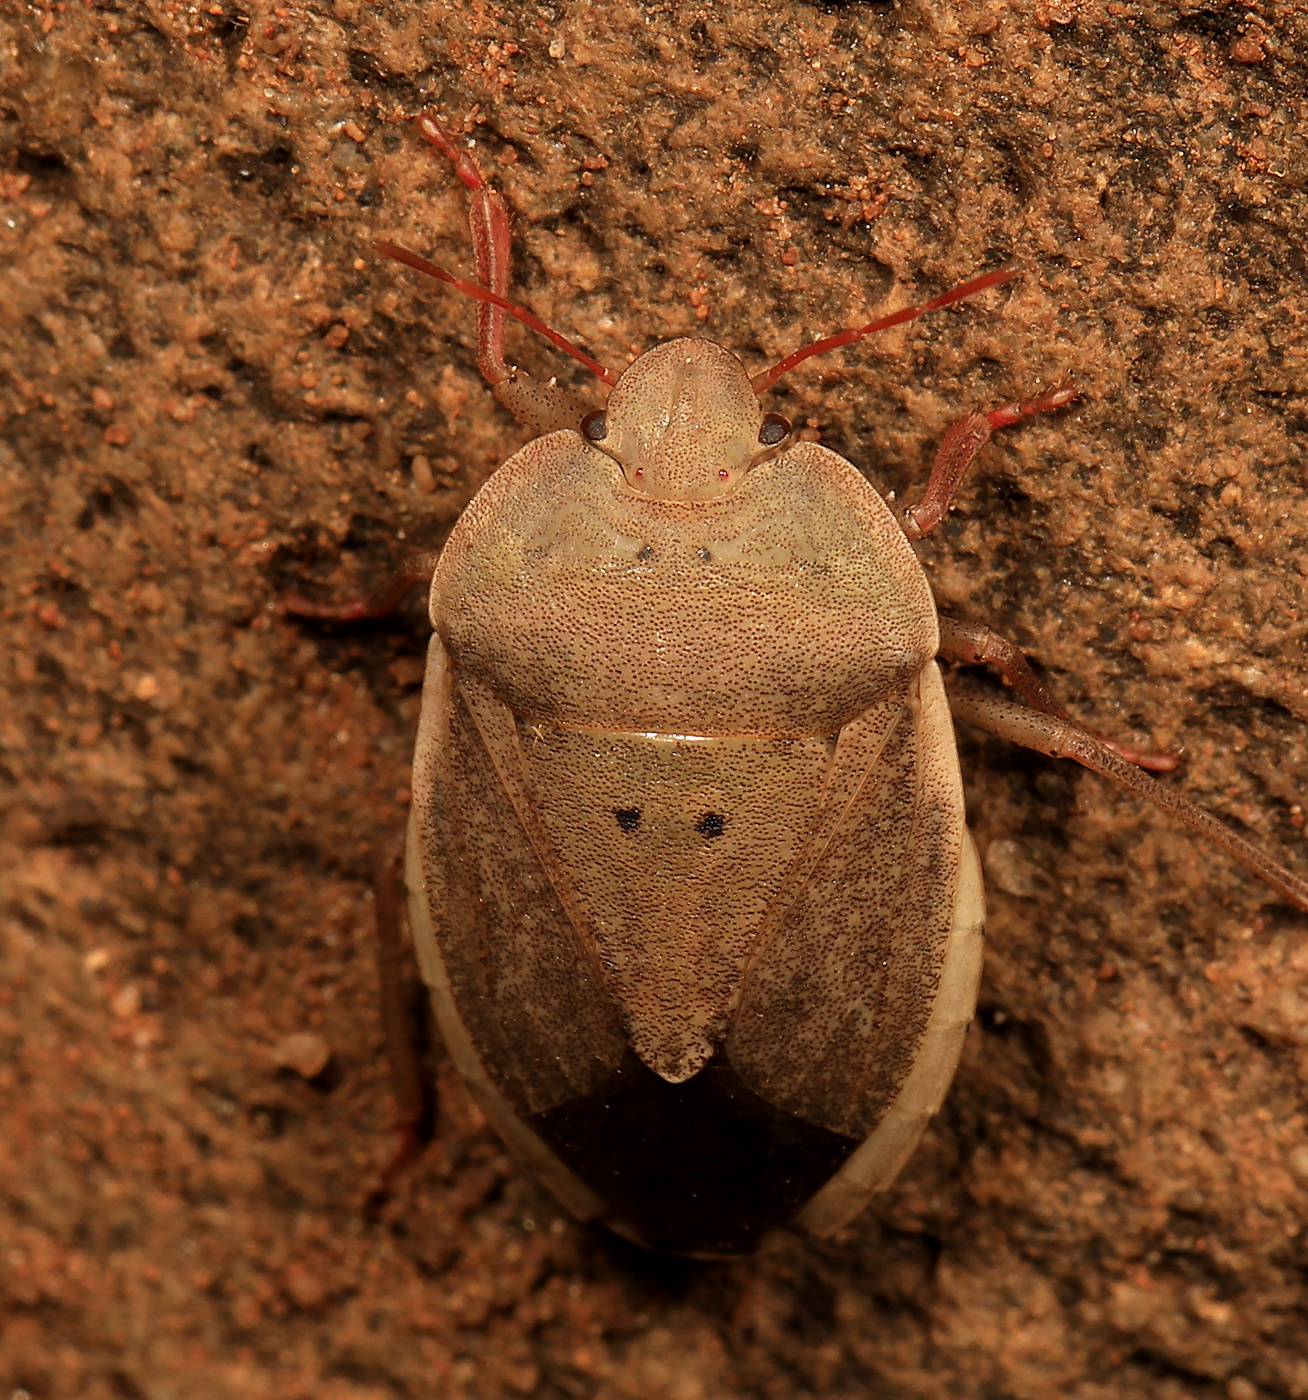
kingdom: Animalia
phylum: Arthropoda
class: Insecta
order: Hemiptera
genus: Delegorguella
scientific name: Delegorguella
